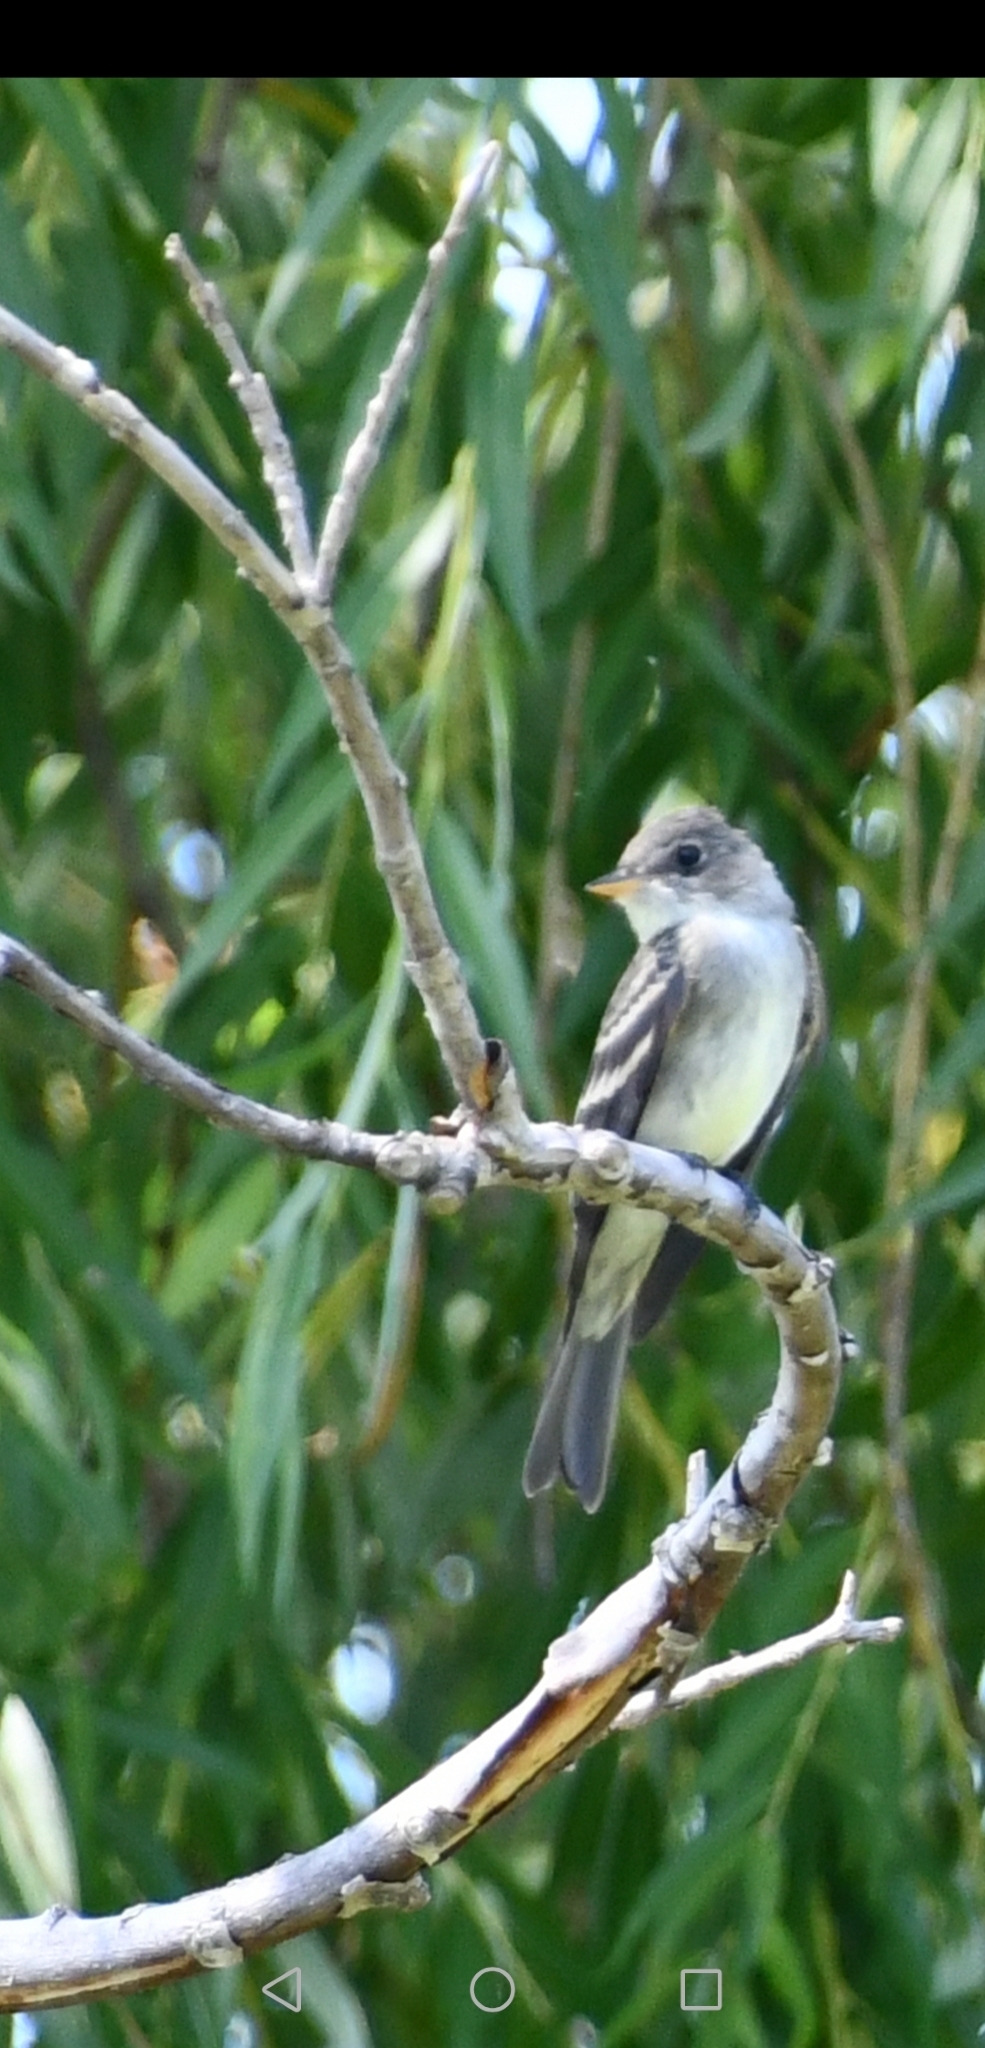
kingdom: Animalia
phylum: Chordata
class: Aves
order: Passeriformes
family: Tyrannidae
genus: Contopus
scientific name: Contopus virens
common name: Eastern wood-pewee
